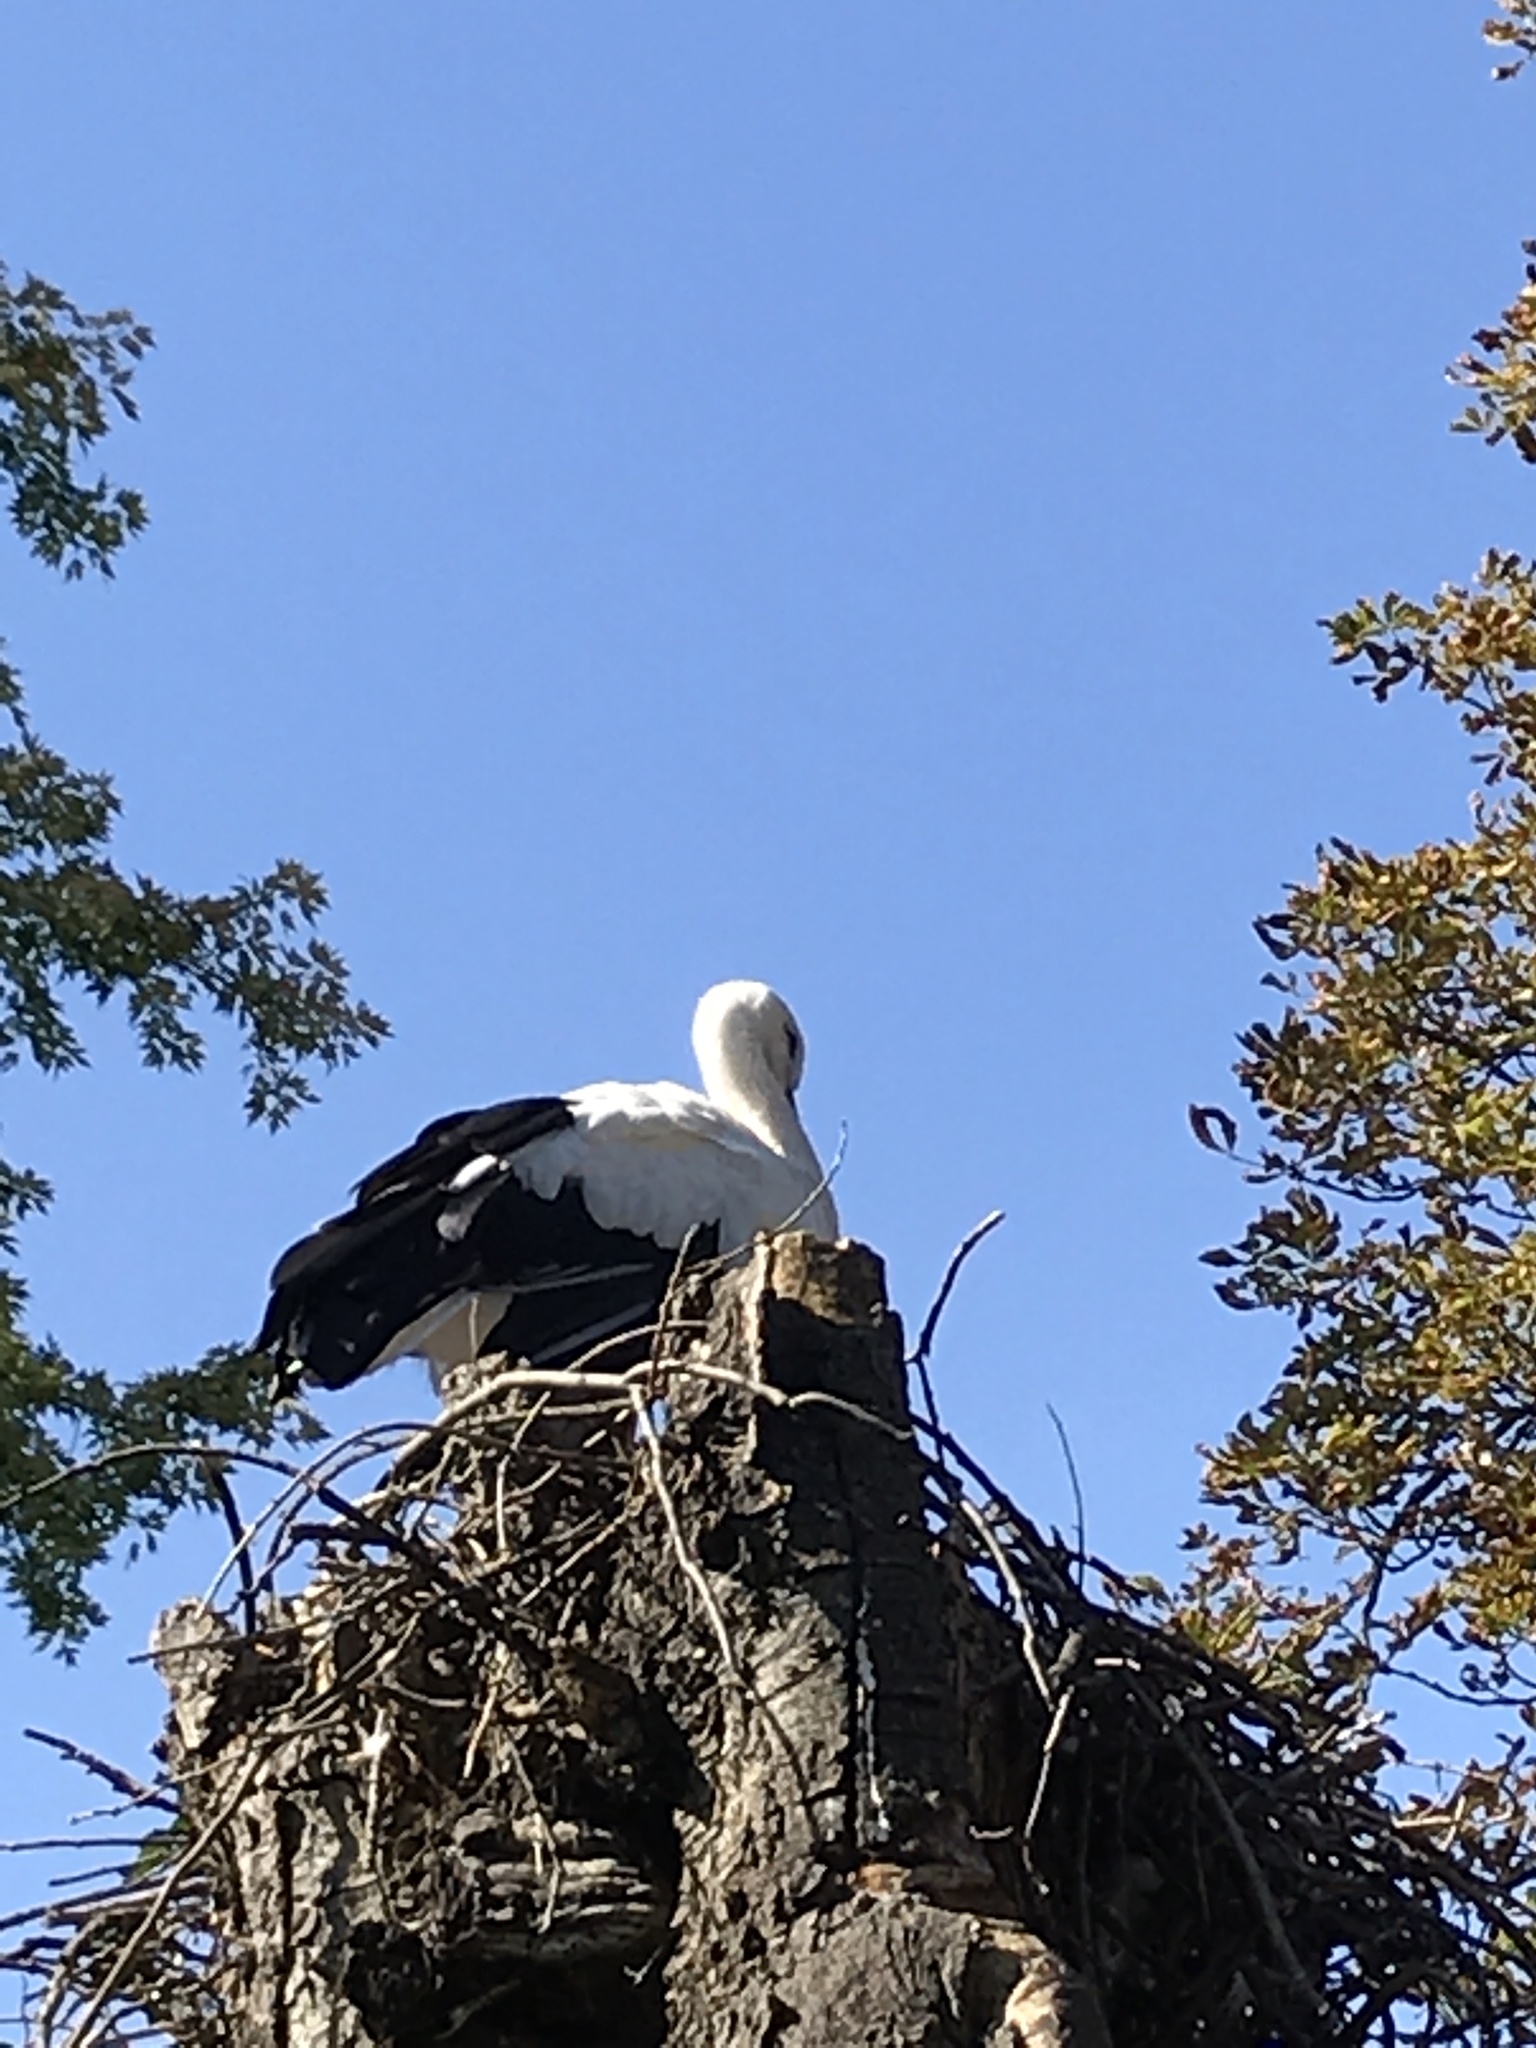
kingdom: Animalia
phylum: Chordata
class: Aves
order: Ciconiiformes
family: Ciconiidae
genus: Ciconia
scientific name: Ciconia ciconia
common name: White stork
